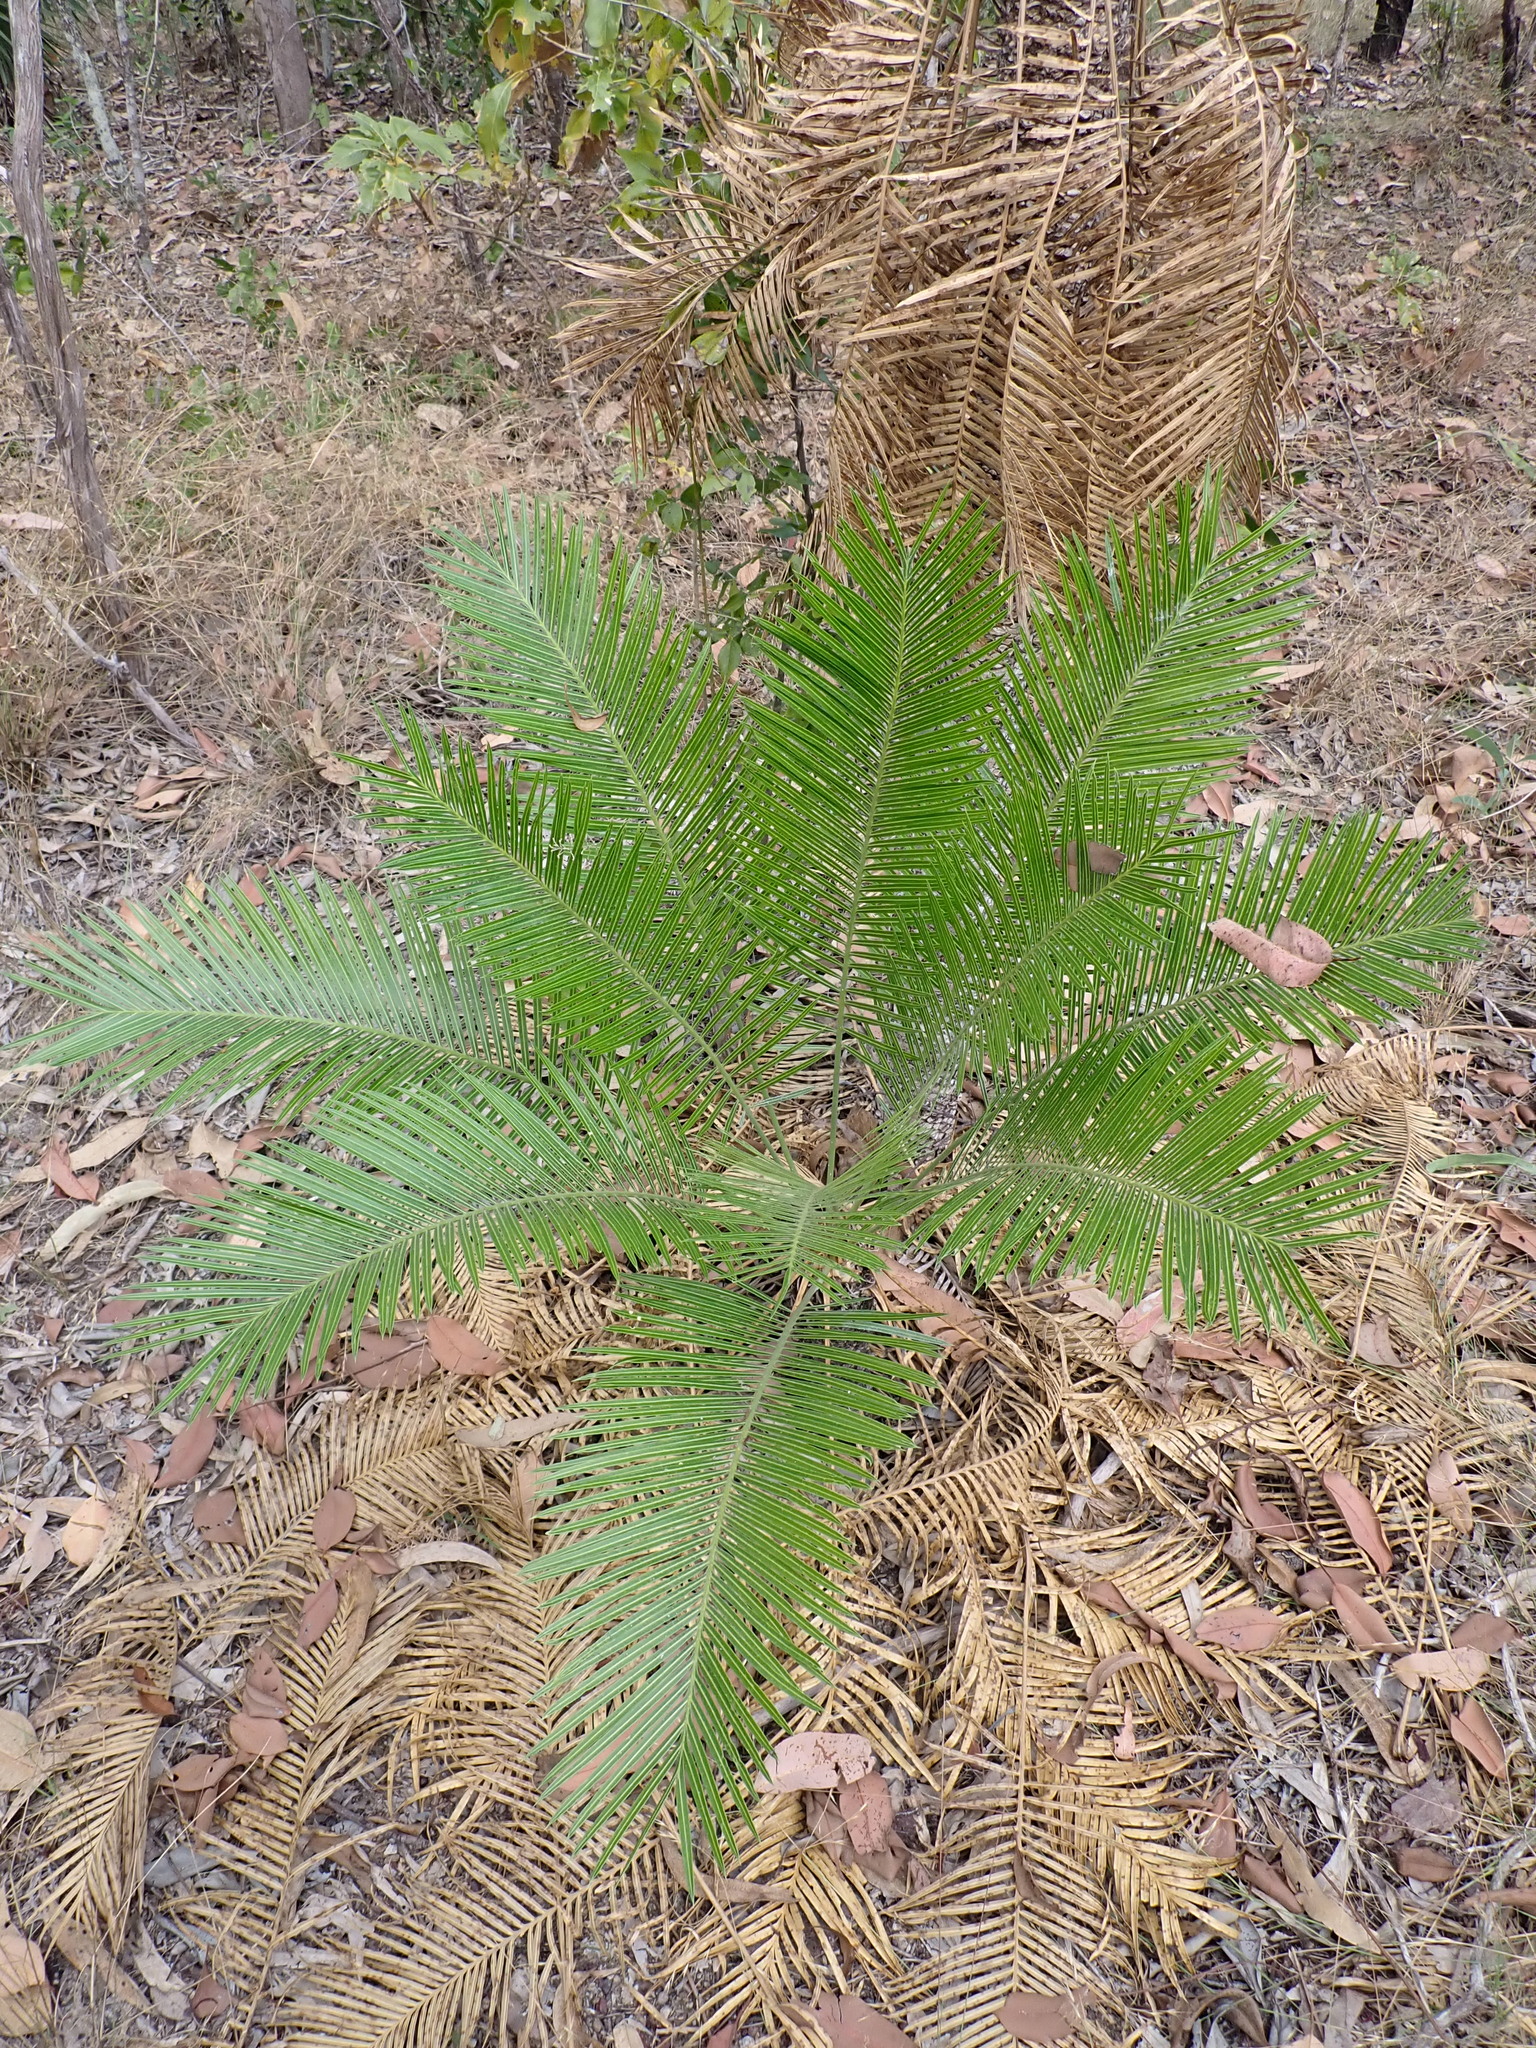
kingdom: Plantae
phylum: Tracheophyta
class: Cycadopsida
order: Cycadales
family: Cycadaceae
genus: Cycas
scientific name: Cycas armstrongii
